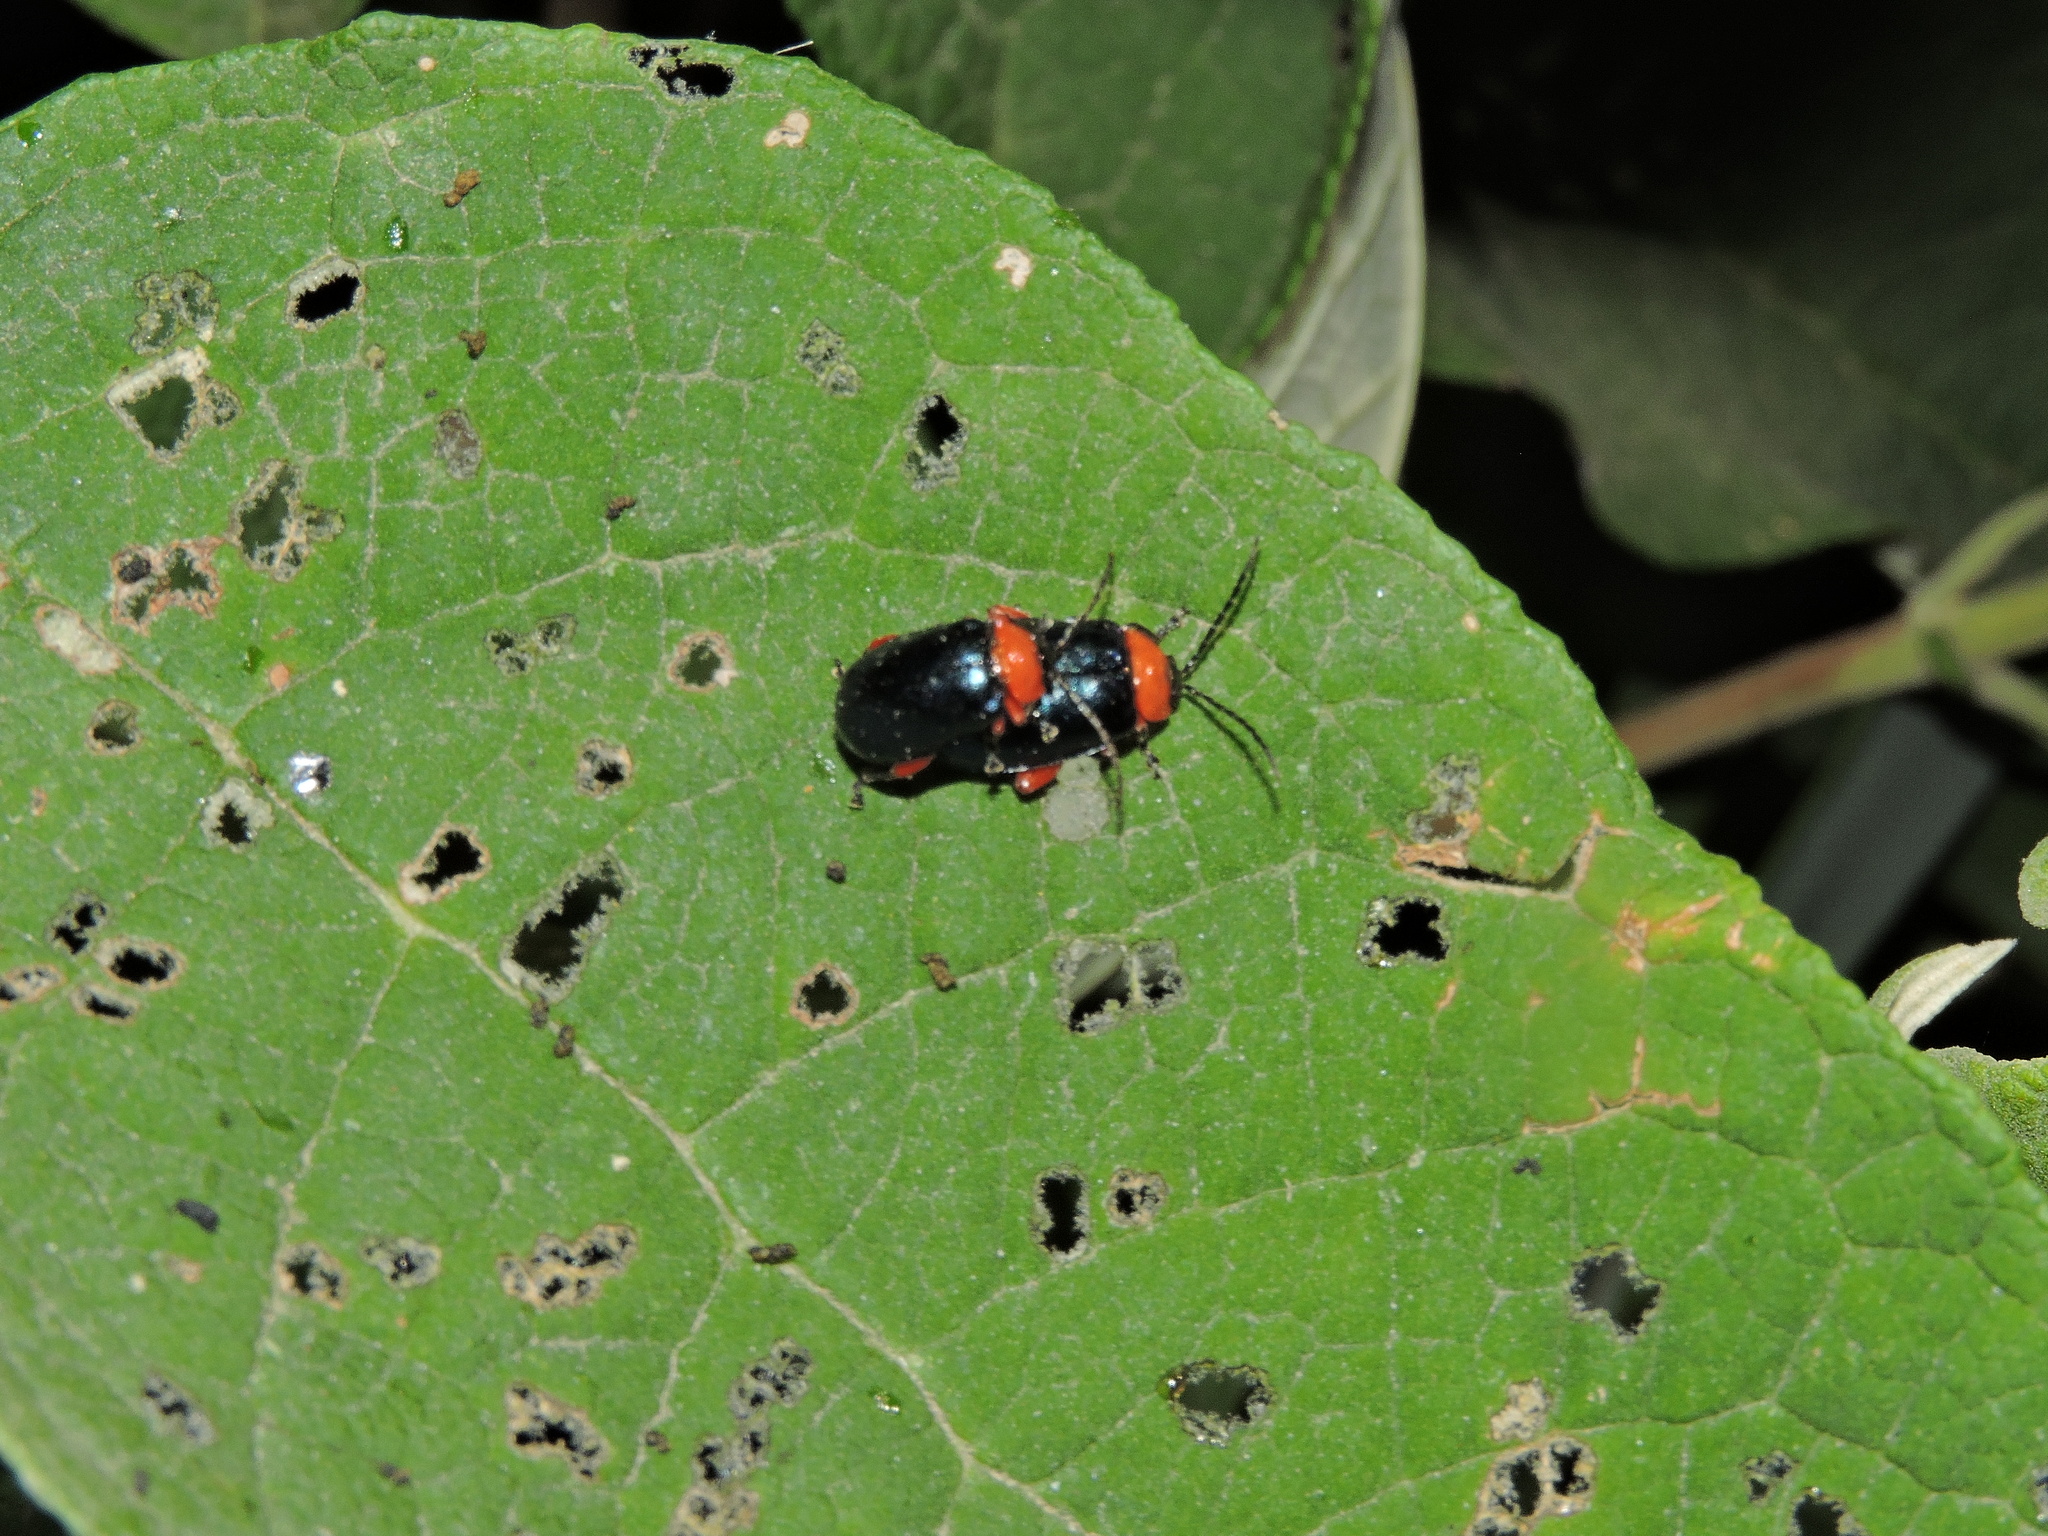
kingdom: Animalia
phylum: Arthropoda
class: Insecta
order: Coleoptera
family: Chrysomelidae
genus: Asphaera
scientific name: Asphaera abdominalis
